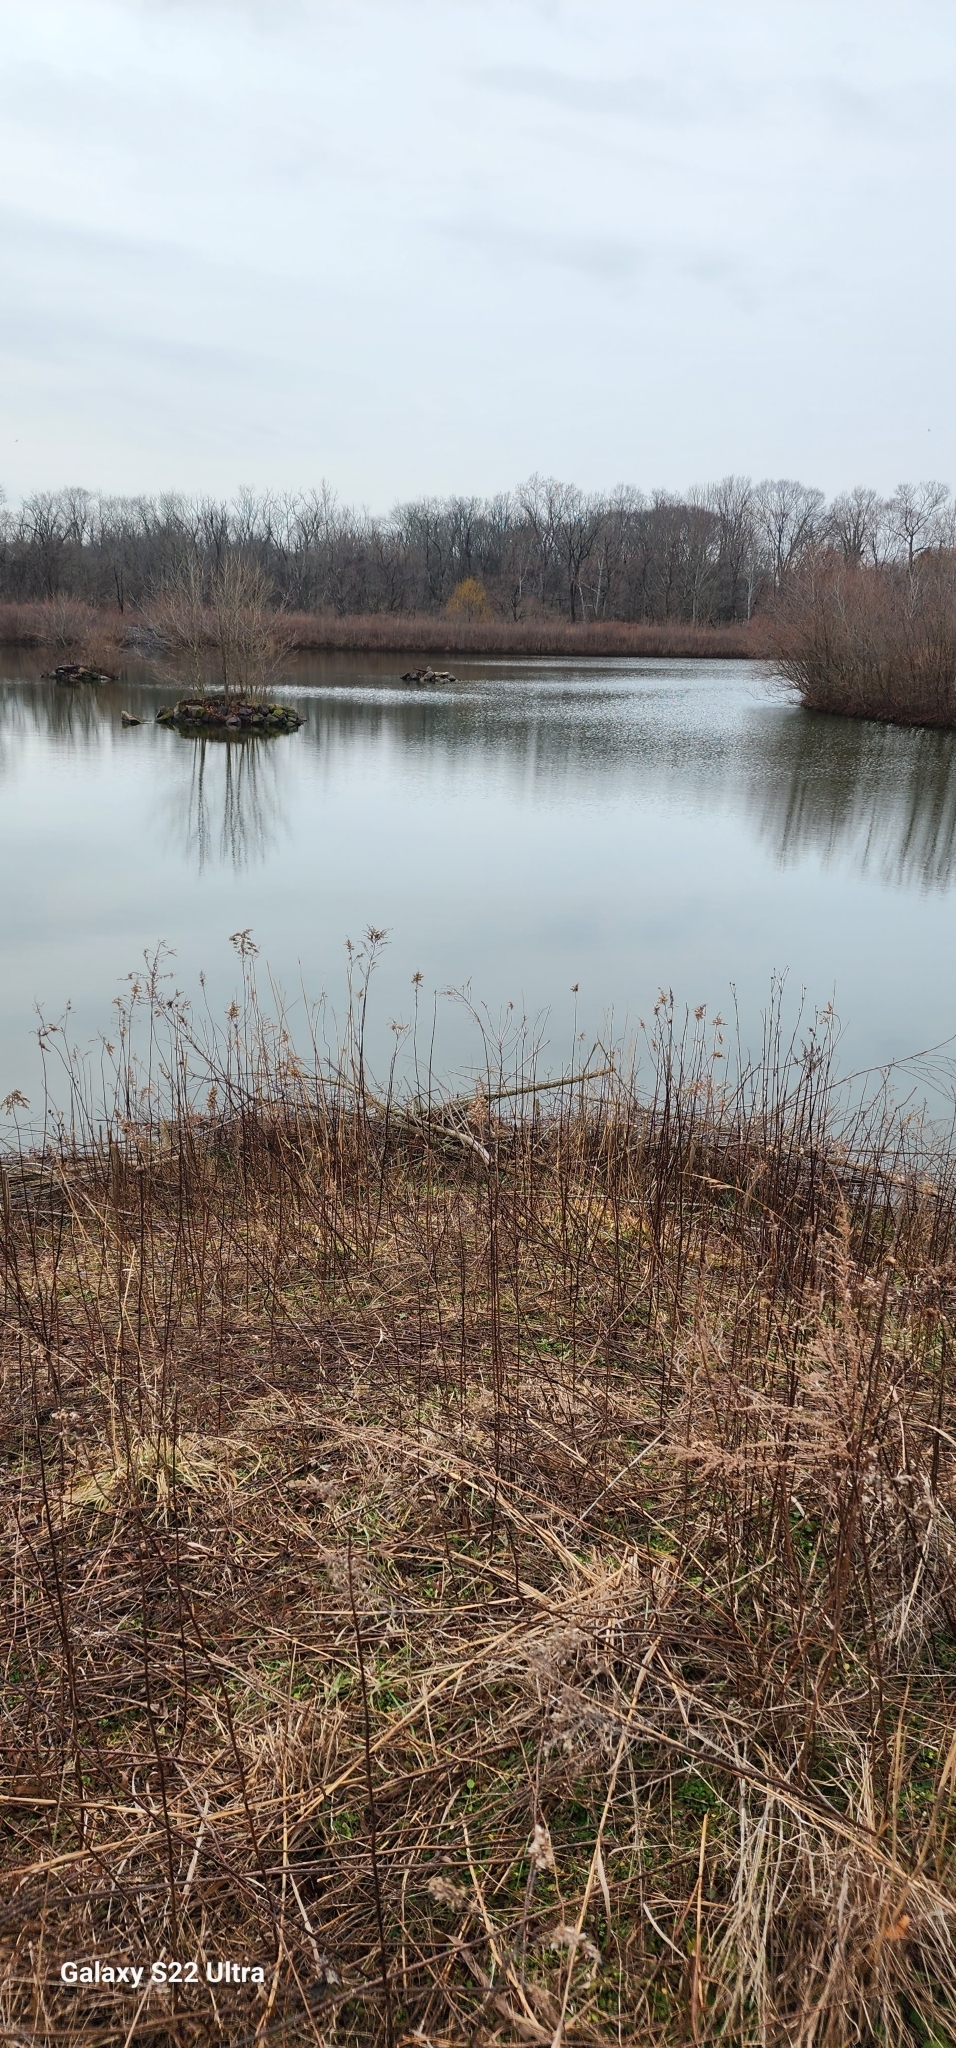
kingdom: Animalia
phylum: Chordata
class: Aves
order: Pelecaniformes
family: Ardeidae
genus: Ardea
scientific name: Ardea herodias
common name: Great blue heron
